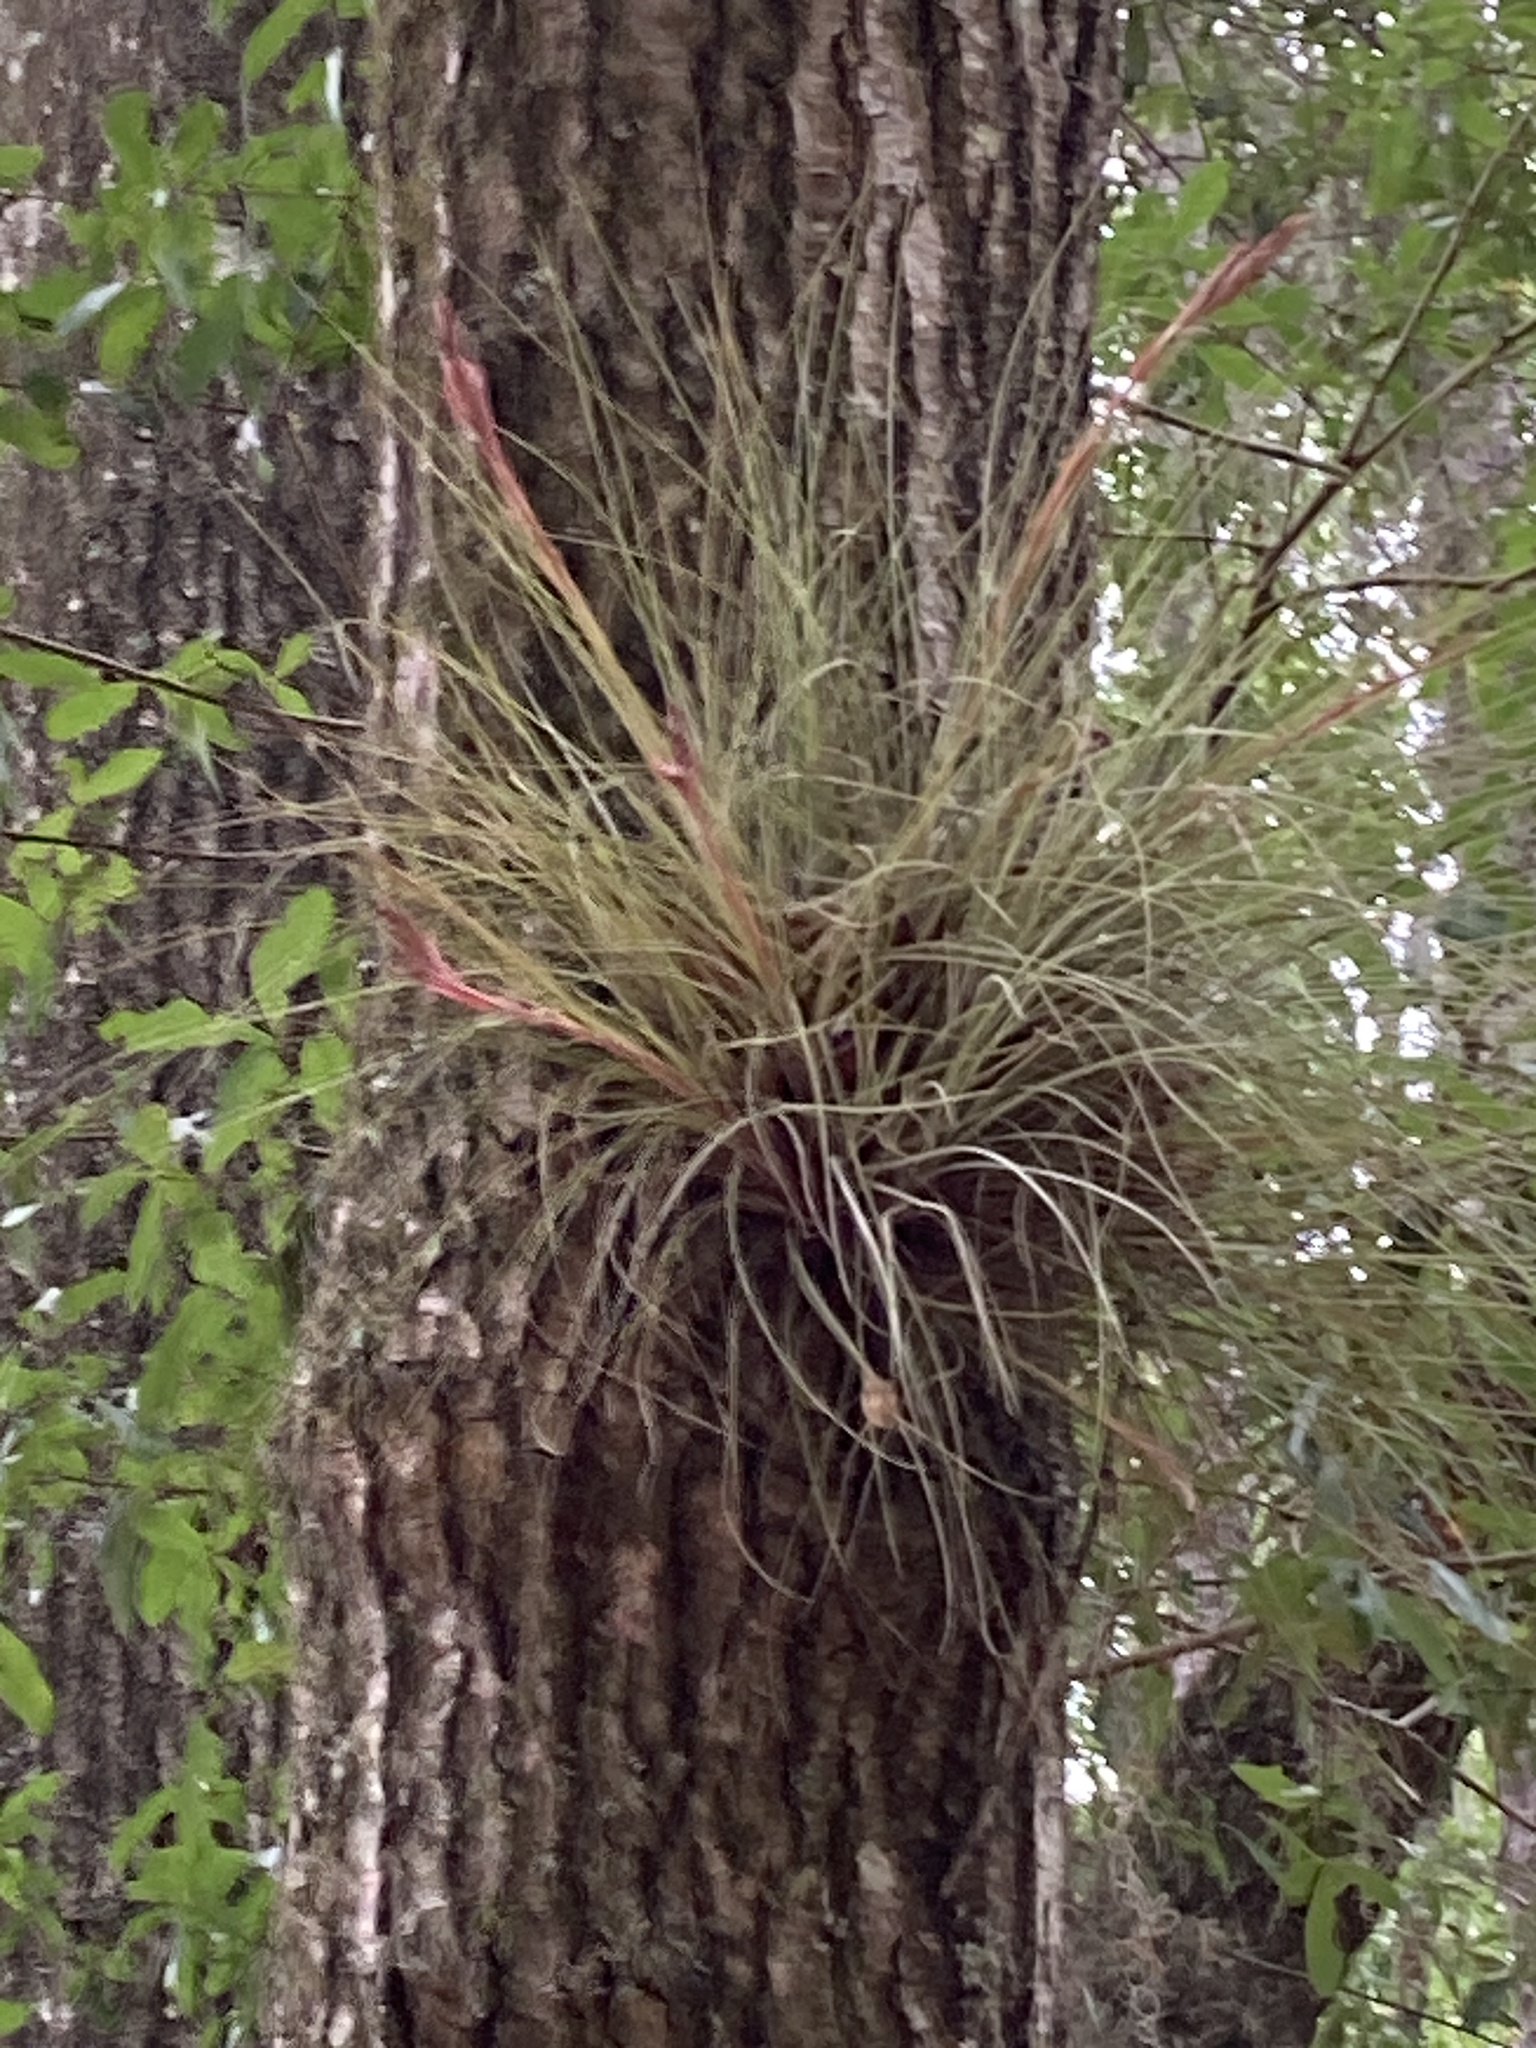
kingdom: Plantae
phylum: Tracheophyta
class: Liliopsida
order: Poales
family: Bromeliaceae
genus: Tillandsia
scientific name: Tillandsia bartramii
